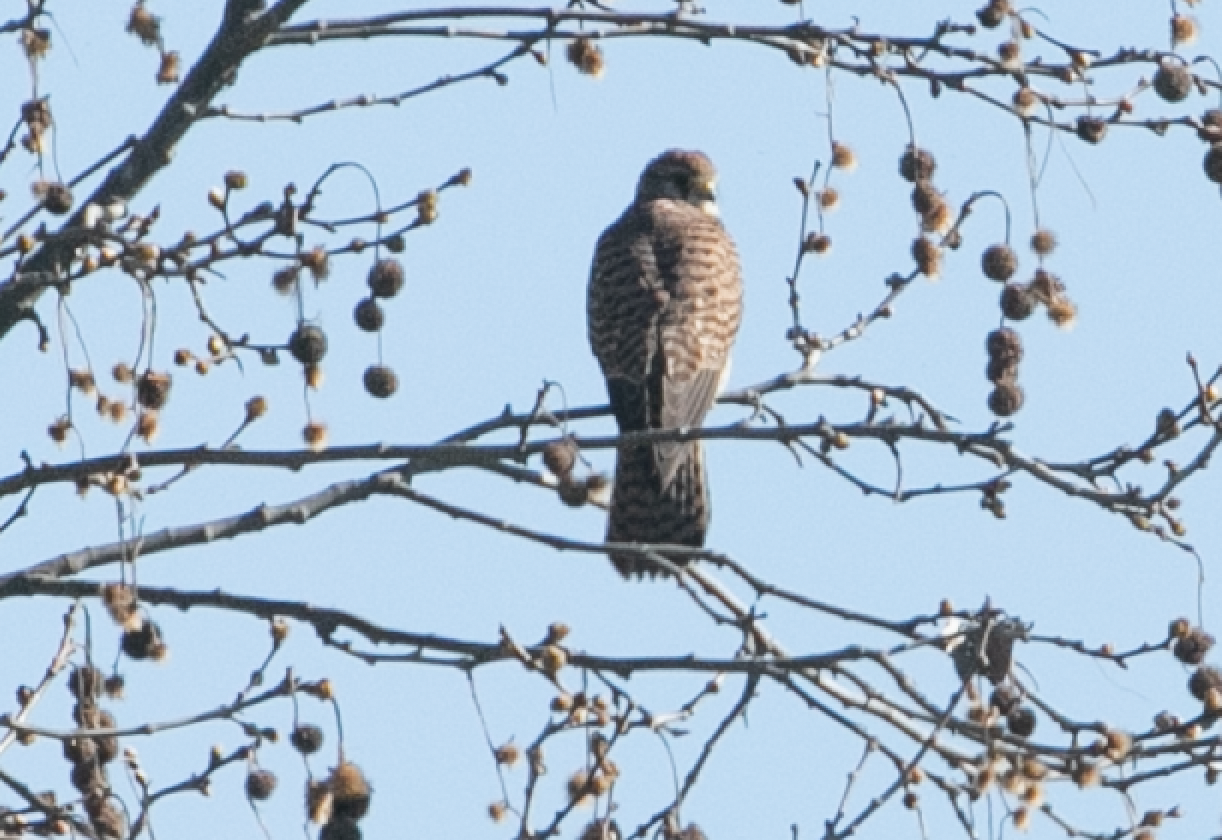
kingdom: Animalia
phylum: Chordata
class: Aves
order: Falconiformes
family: Falconidae
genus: Falco
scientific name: Falco tinnunculus
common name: Common kestrel
